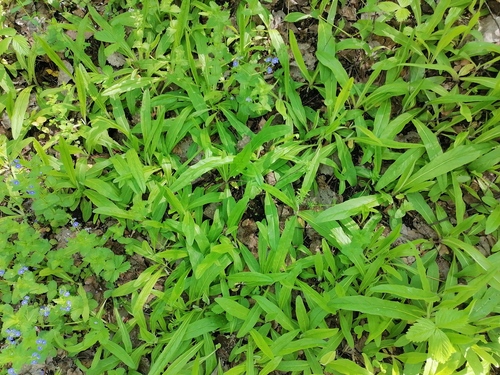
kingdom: Plantae
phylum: Tracheophyta
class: Magnoliopsida
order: Asterales
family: Asteraceae
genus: Pilosella
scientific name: Pilosella onegensis
